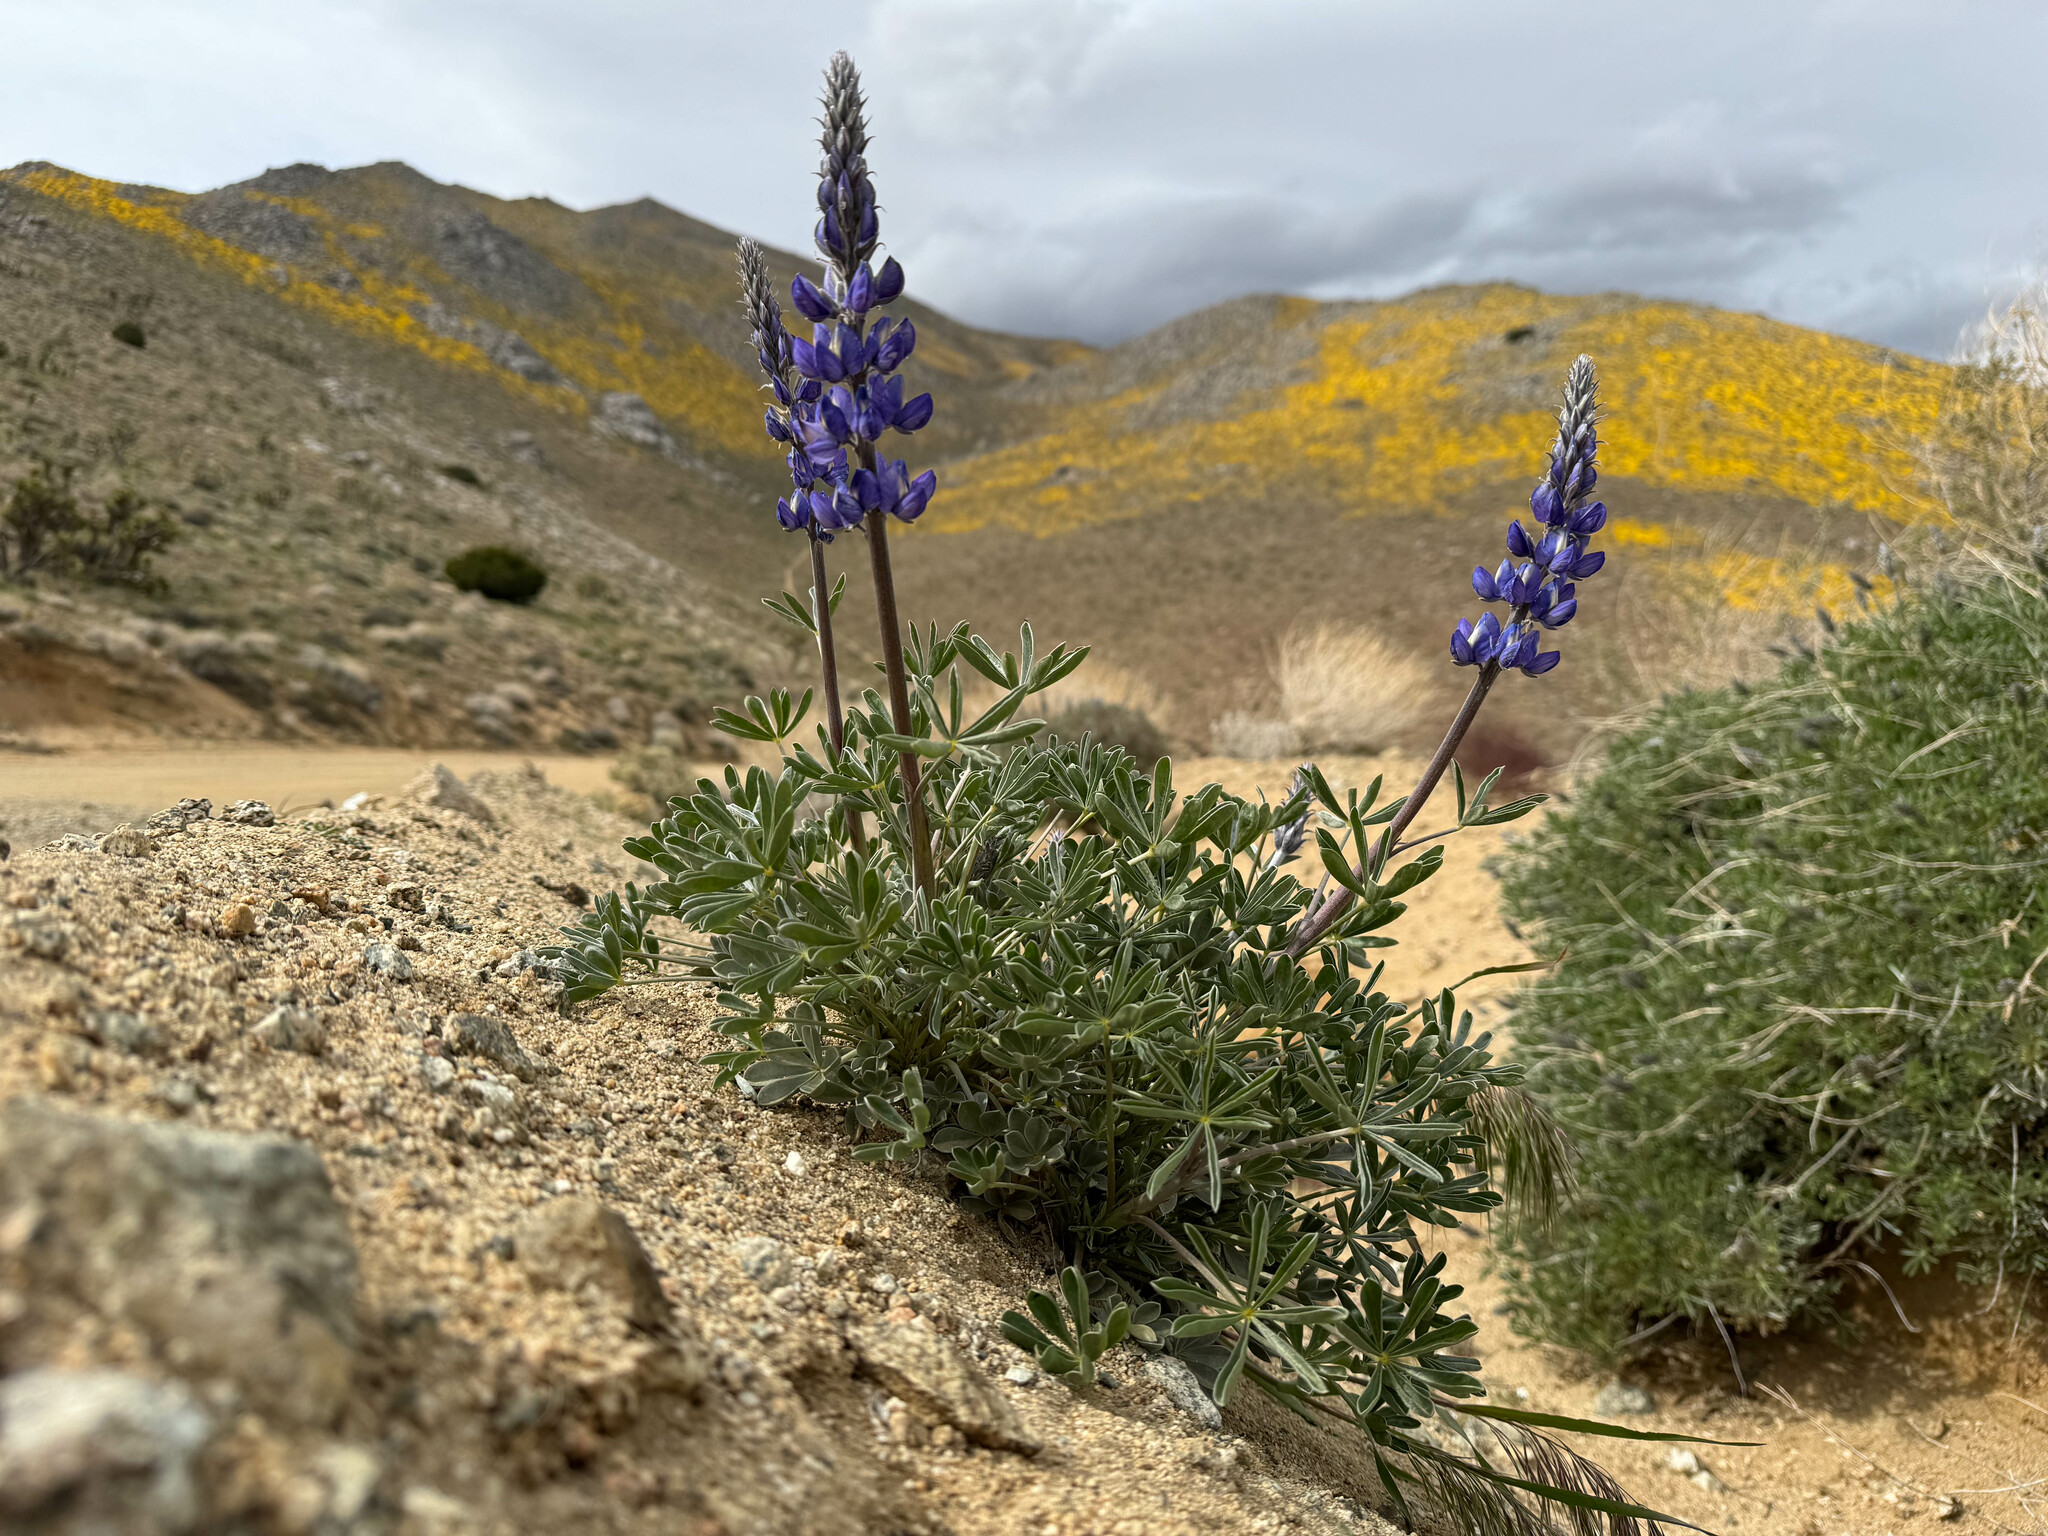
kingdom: Plantae
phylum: Tracheophyta
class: Magnoliopsida
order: Fabales
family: Fabaceae
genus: Lupinus
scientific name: Lupinus excubitus
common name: Grape soda lupine
